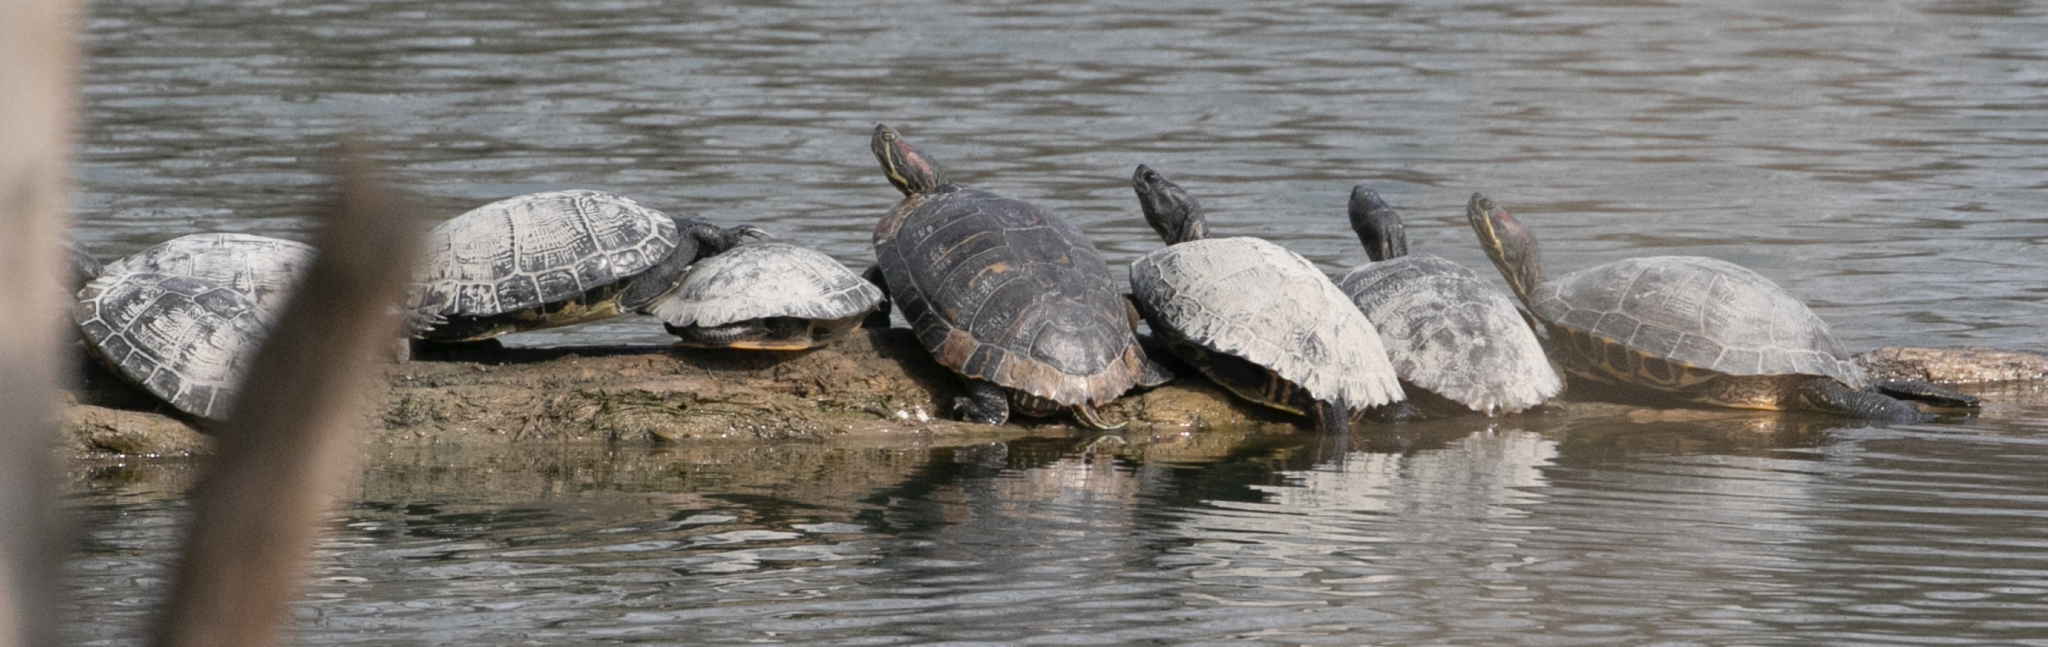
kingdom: Animalia
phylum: Chordata
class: Testudines
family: Emydidae
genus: Trachemys
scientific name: Trachemys scripta
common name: Slider
